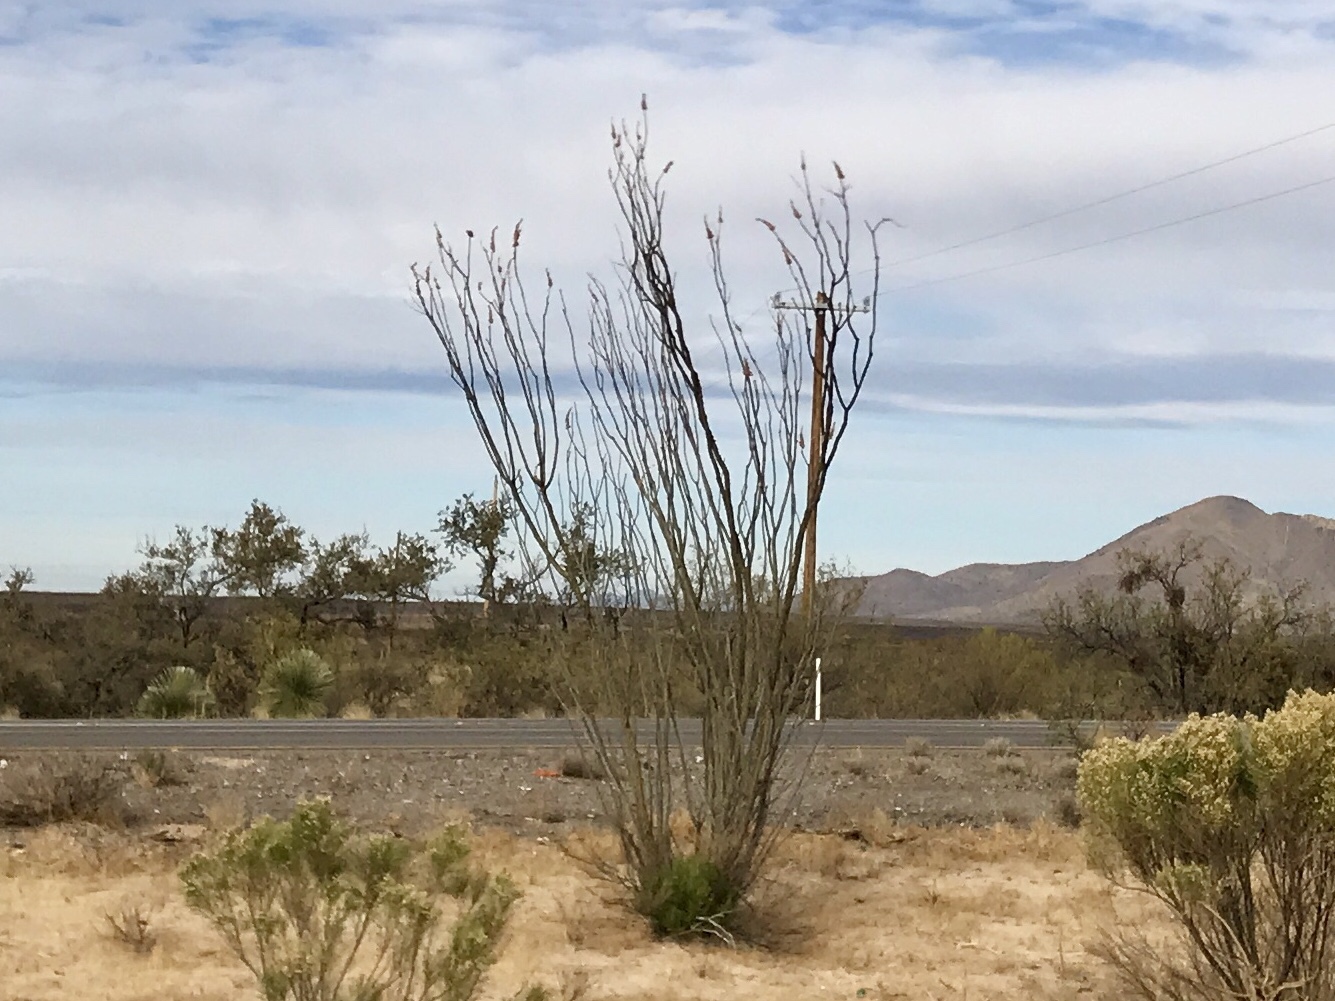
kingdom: Plantae
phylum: Tracheophyta
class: Magnoliopsida
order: Ericales
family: Fouquieriaceae
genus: Fouquieria
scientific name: Fouquieria splendens
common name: Vine-cactus
